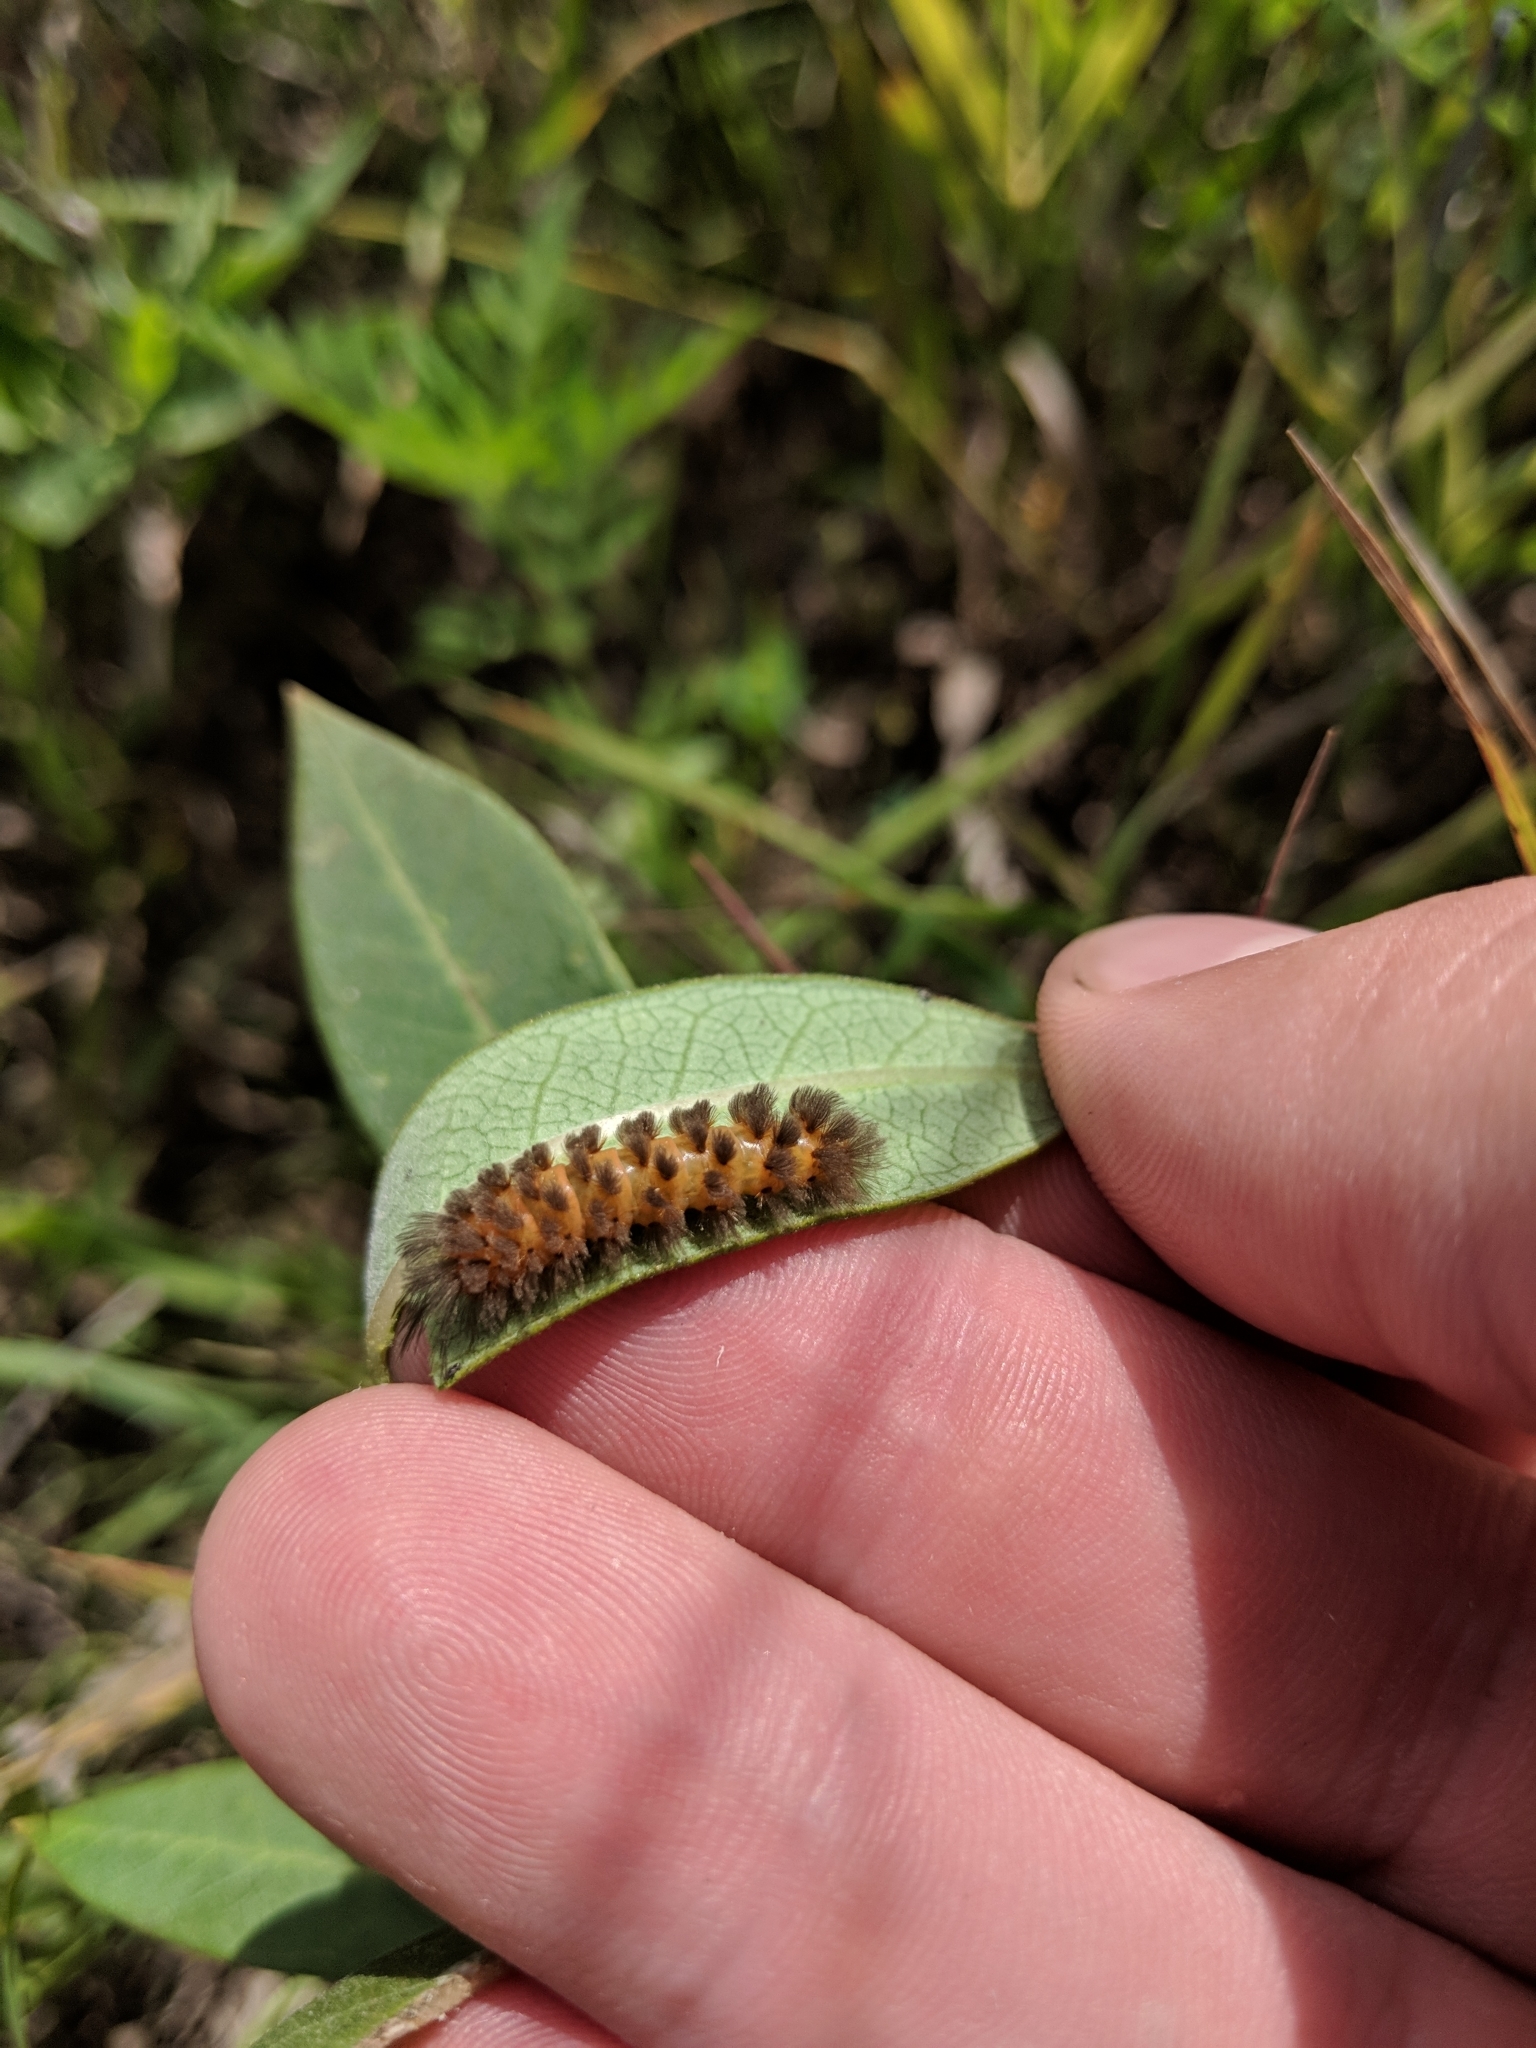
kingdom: Animalia
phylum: Arthropoda
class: Insecta
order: Lepidoptera
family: Erebidae
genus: Cycnia
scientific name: Cycnia collaris
